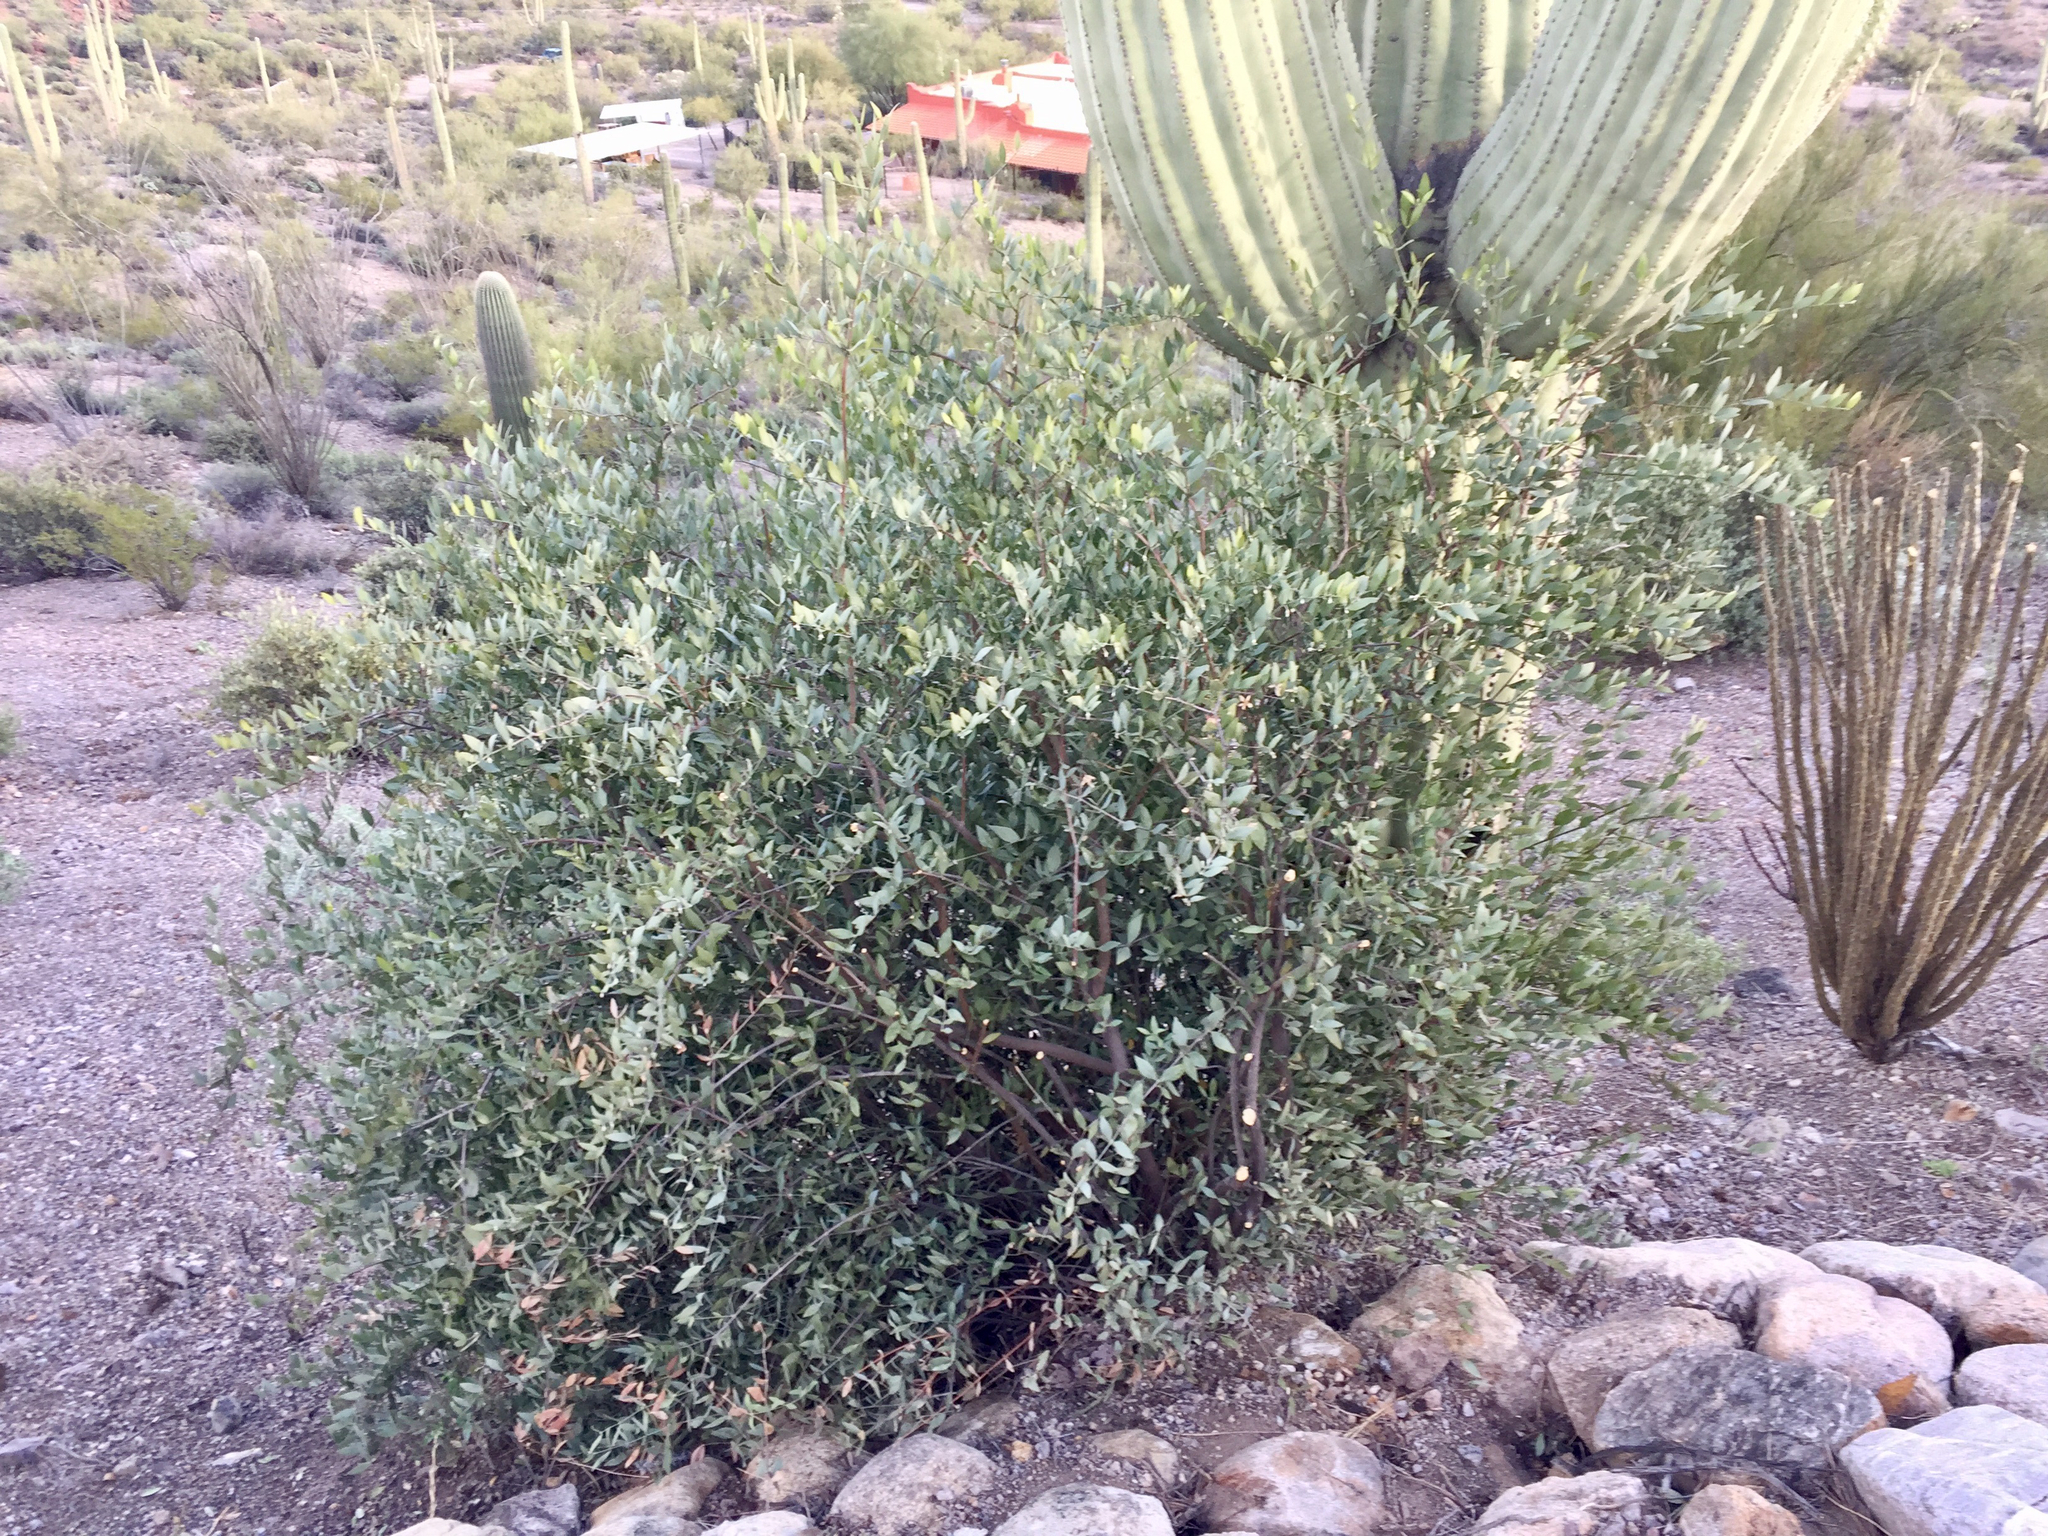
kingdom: Plantae
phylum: Tracheophyta
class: Magnoliopsida
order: Caryophyllales
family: Simmondsiaceae
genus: Simmondsia
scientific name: Simmondsia chinensis
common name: Jojoba
